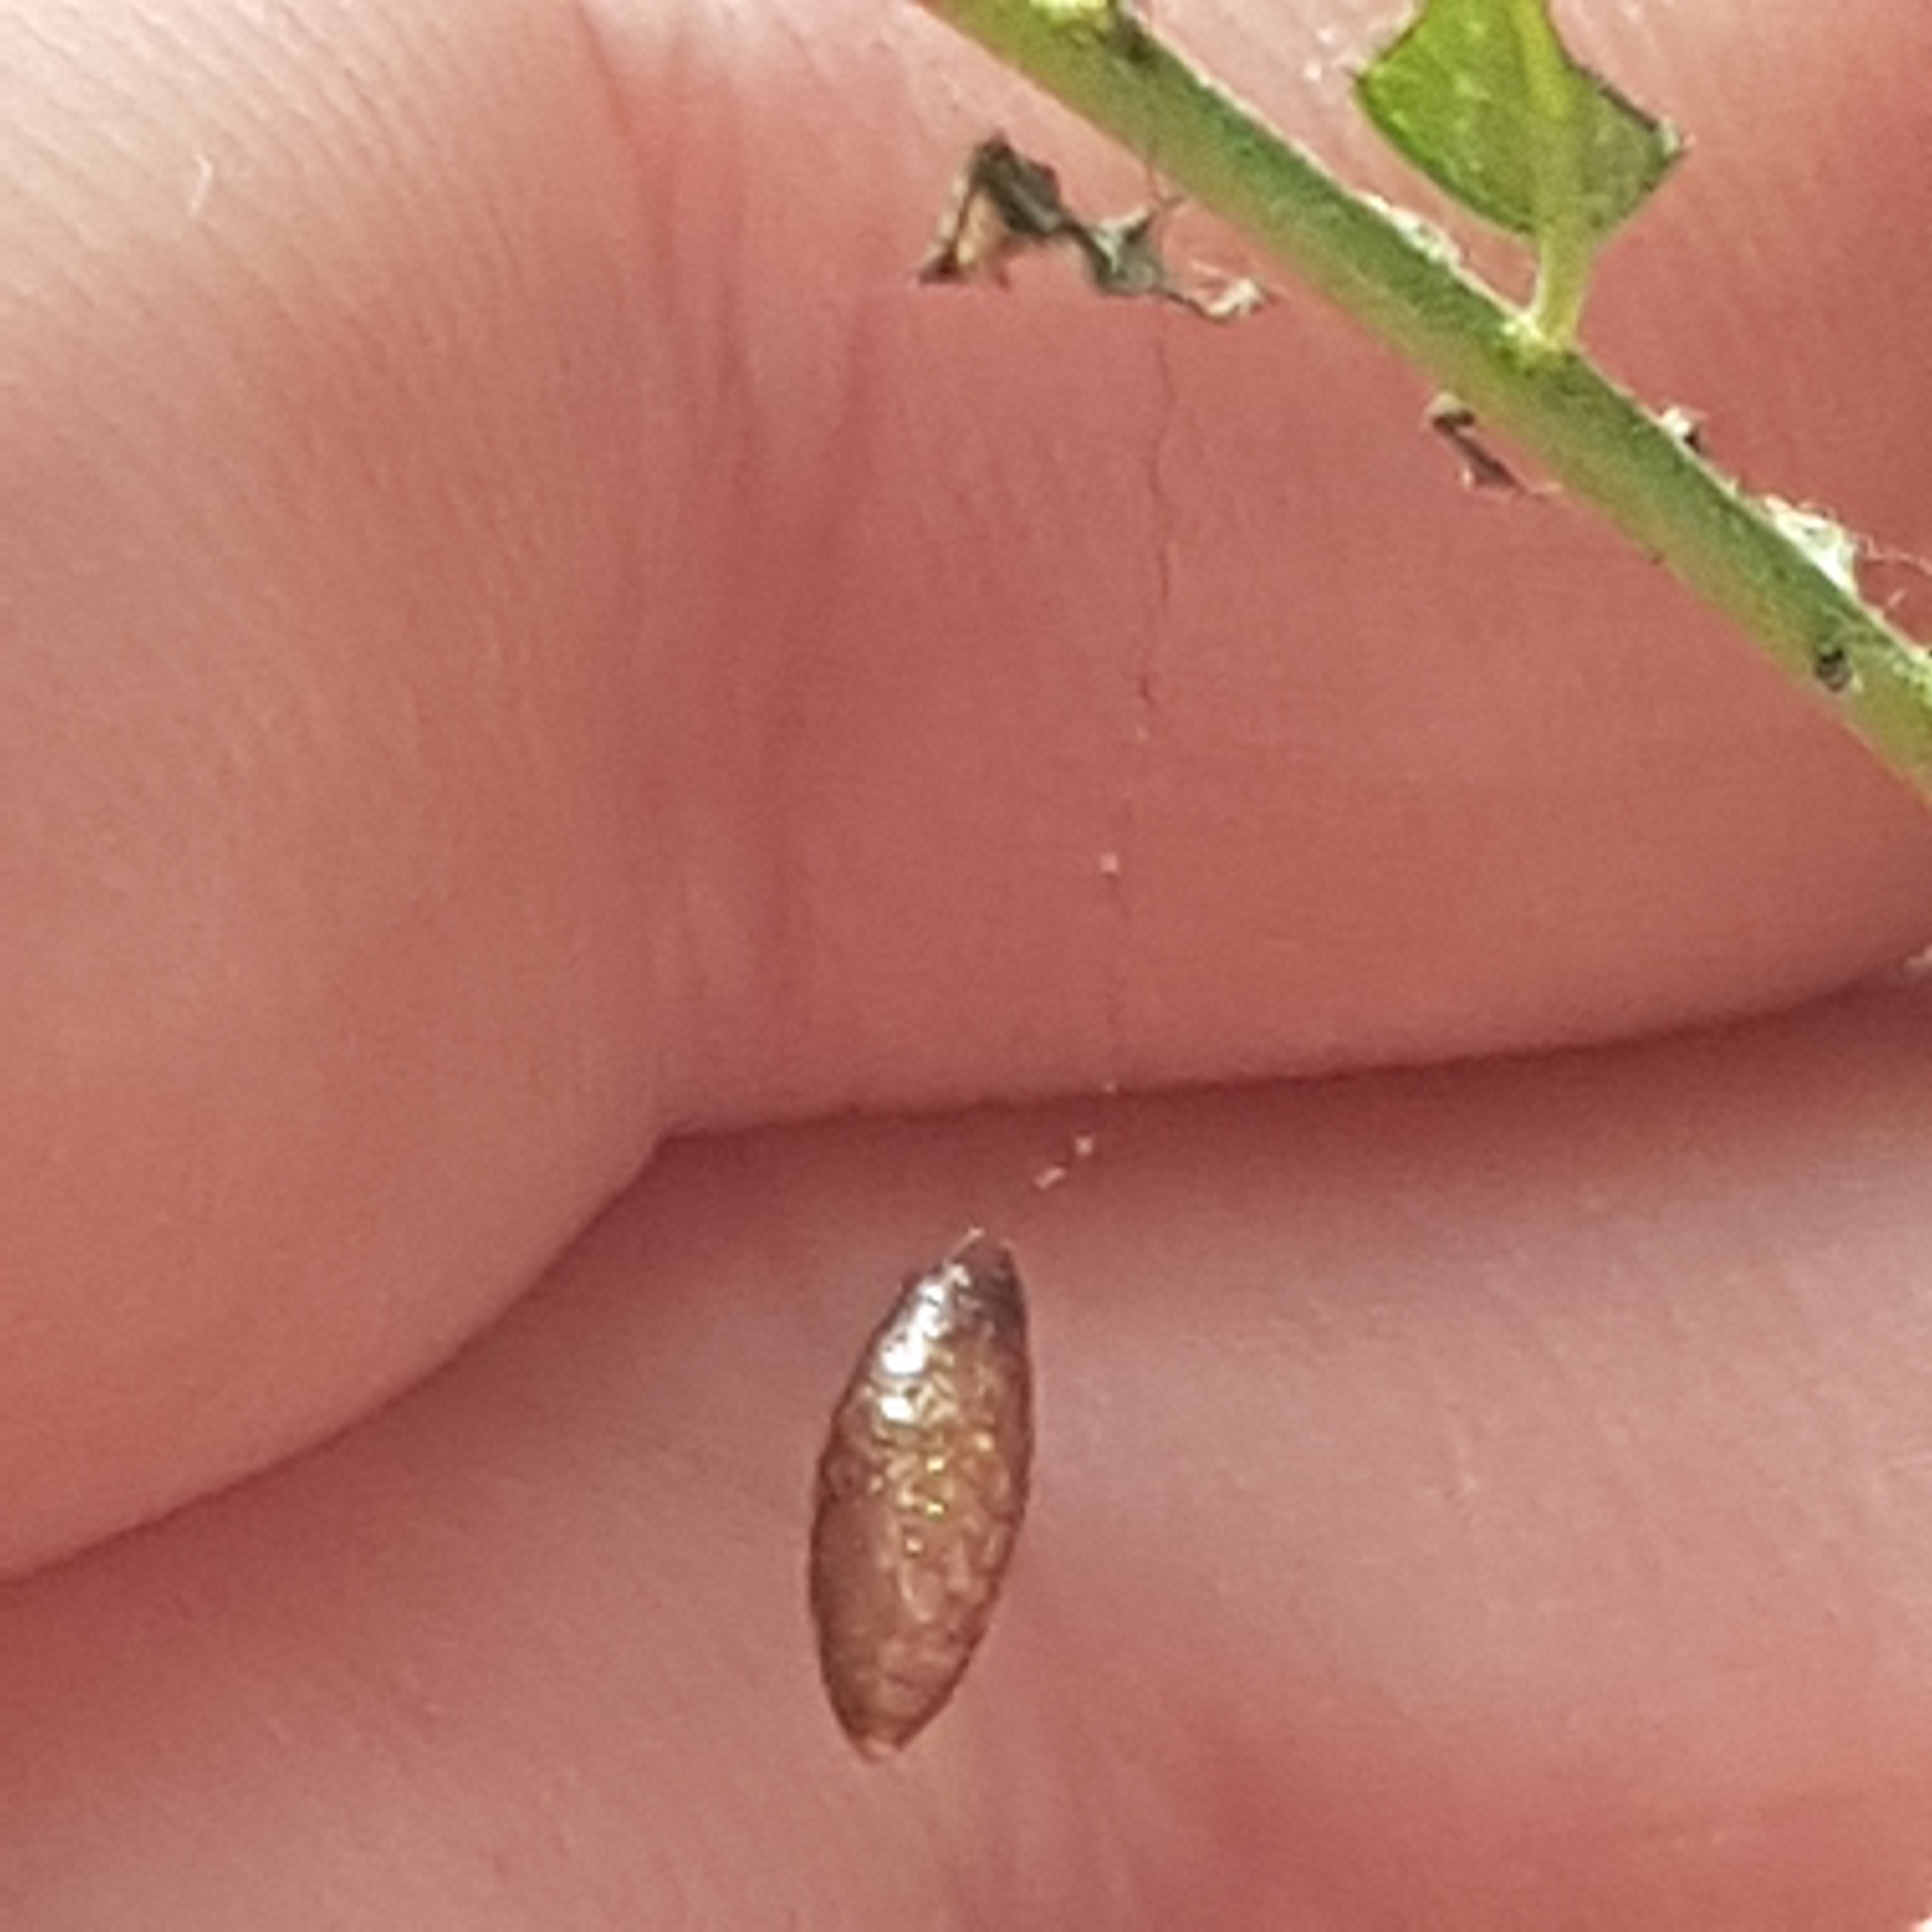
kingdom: Animalia
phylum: Arthropoda
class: Insecta
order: Hymenoptera
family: Braconidae
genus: Meteorus
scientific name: Meteorus pulchricornis
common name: Braconid wasp
